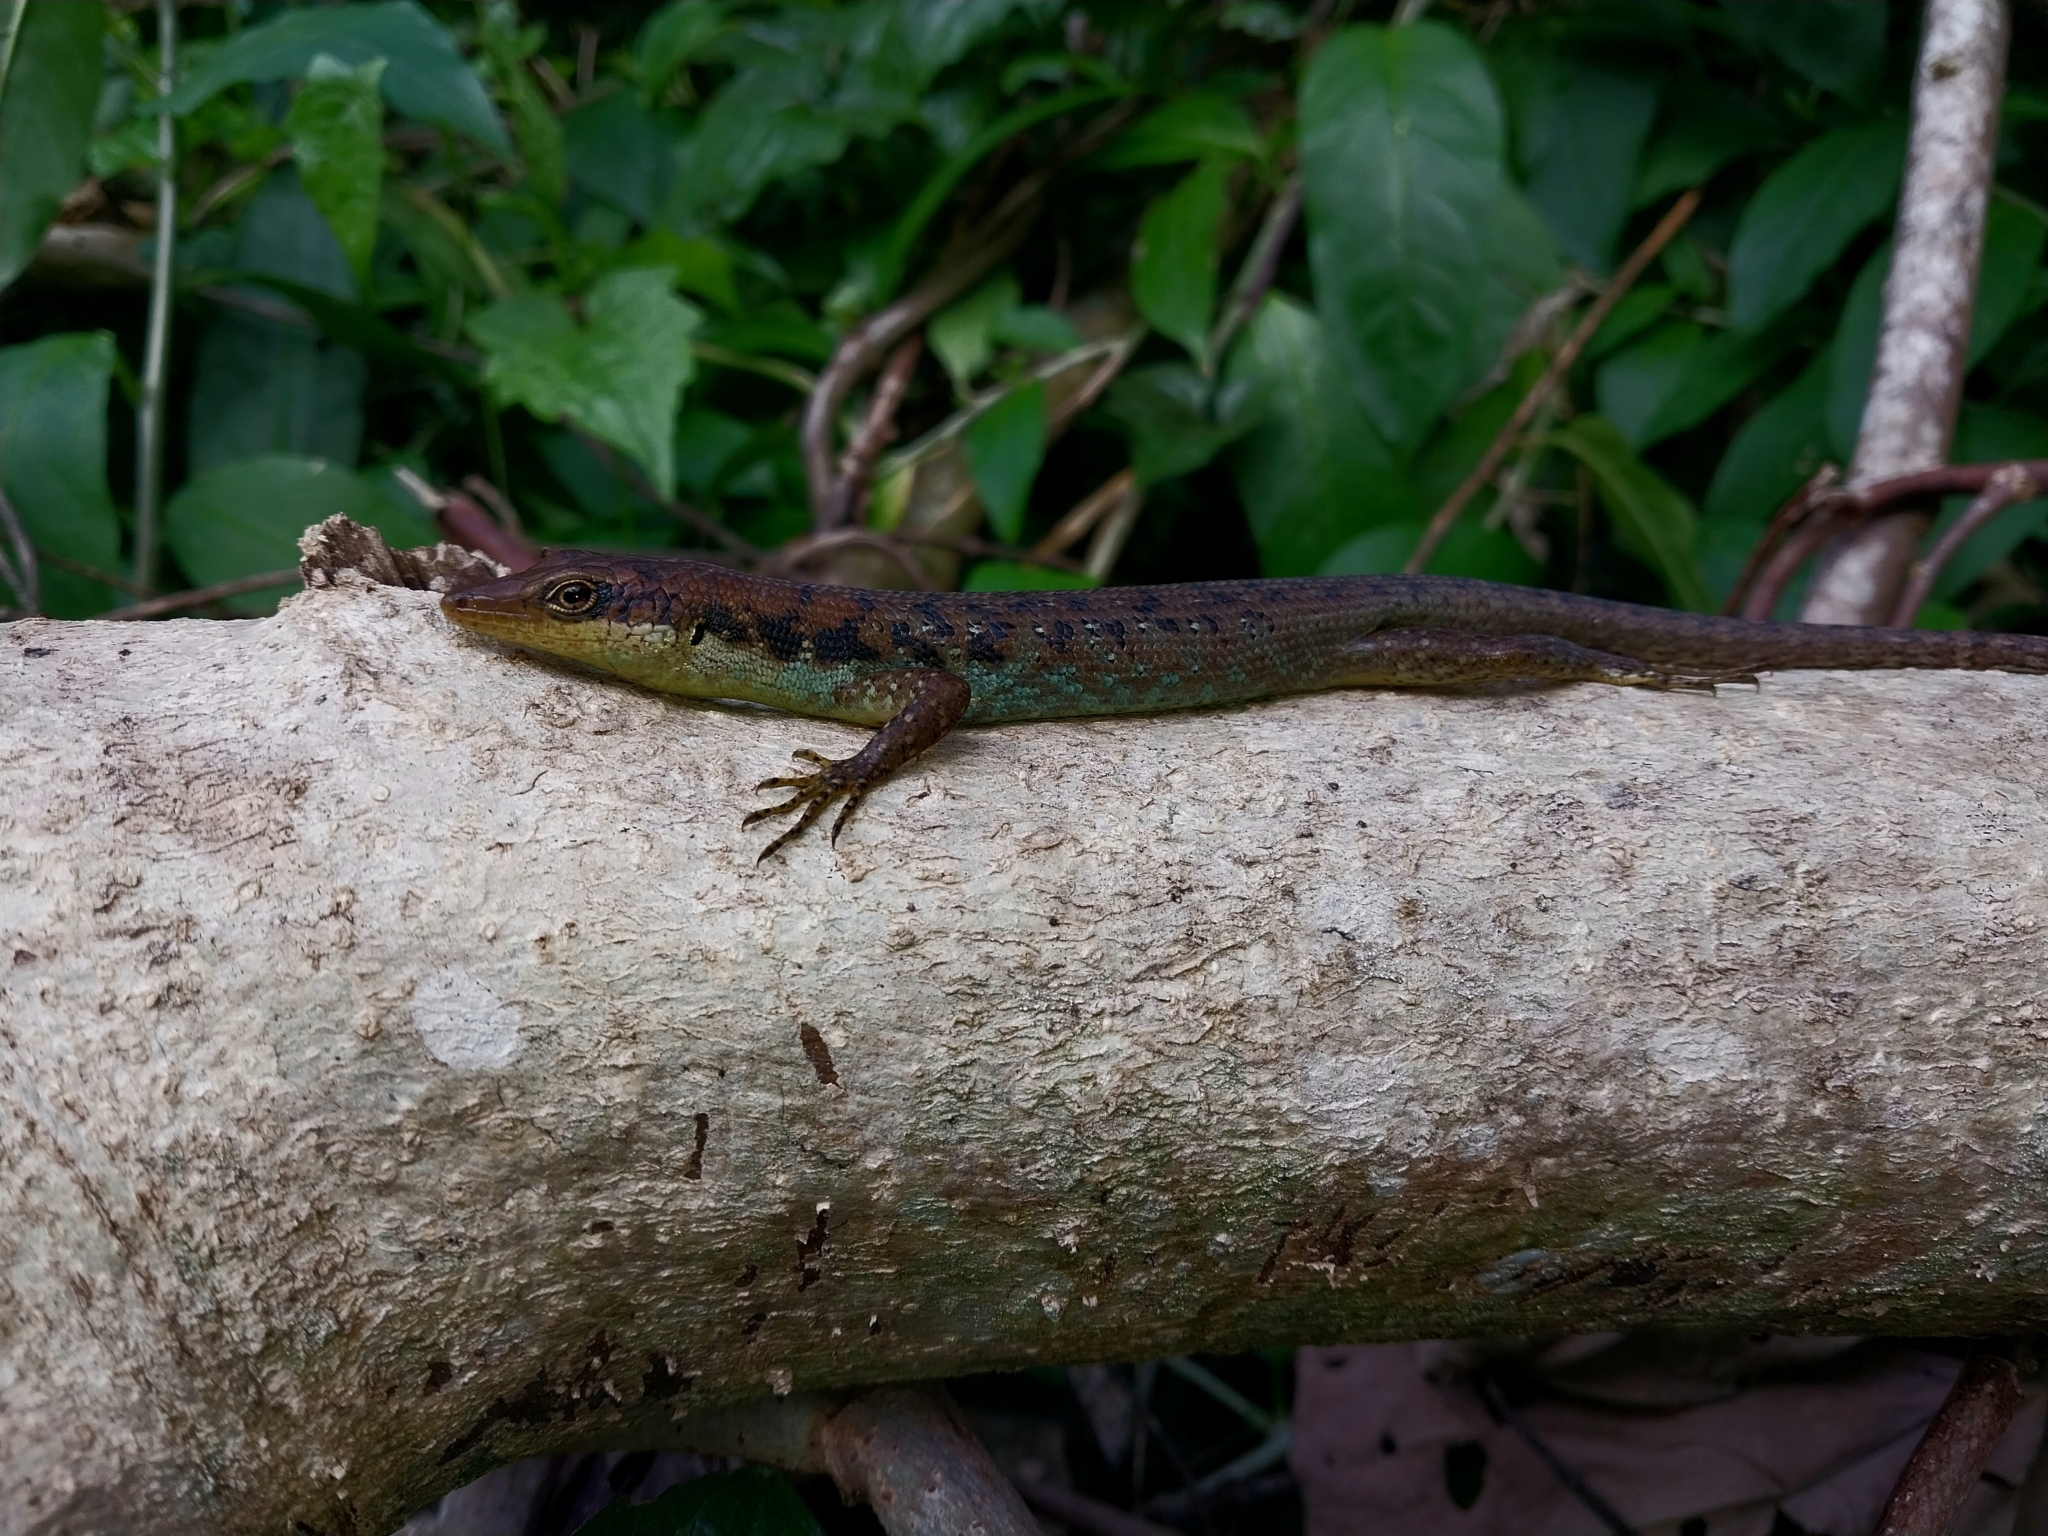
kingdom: Animalia
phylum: Chordata
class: Squamata
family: Scincidae
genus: Emoia
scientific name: Emoia tuitarere
